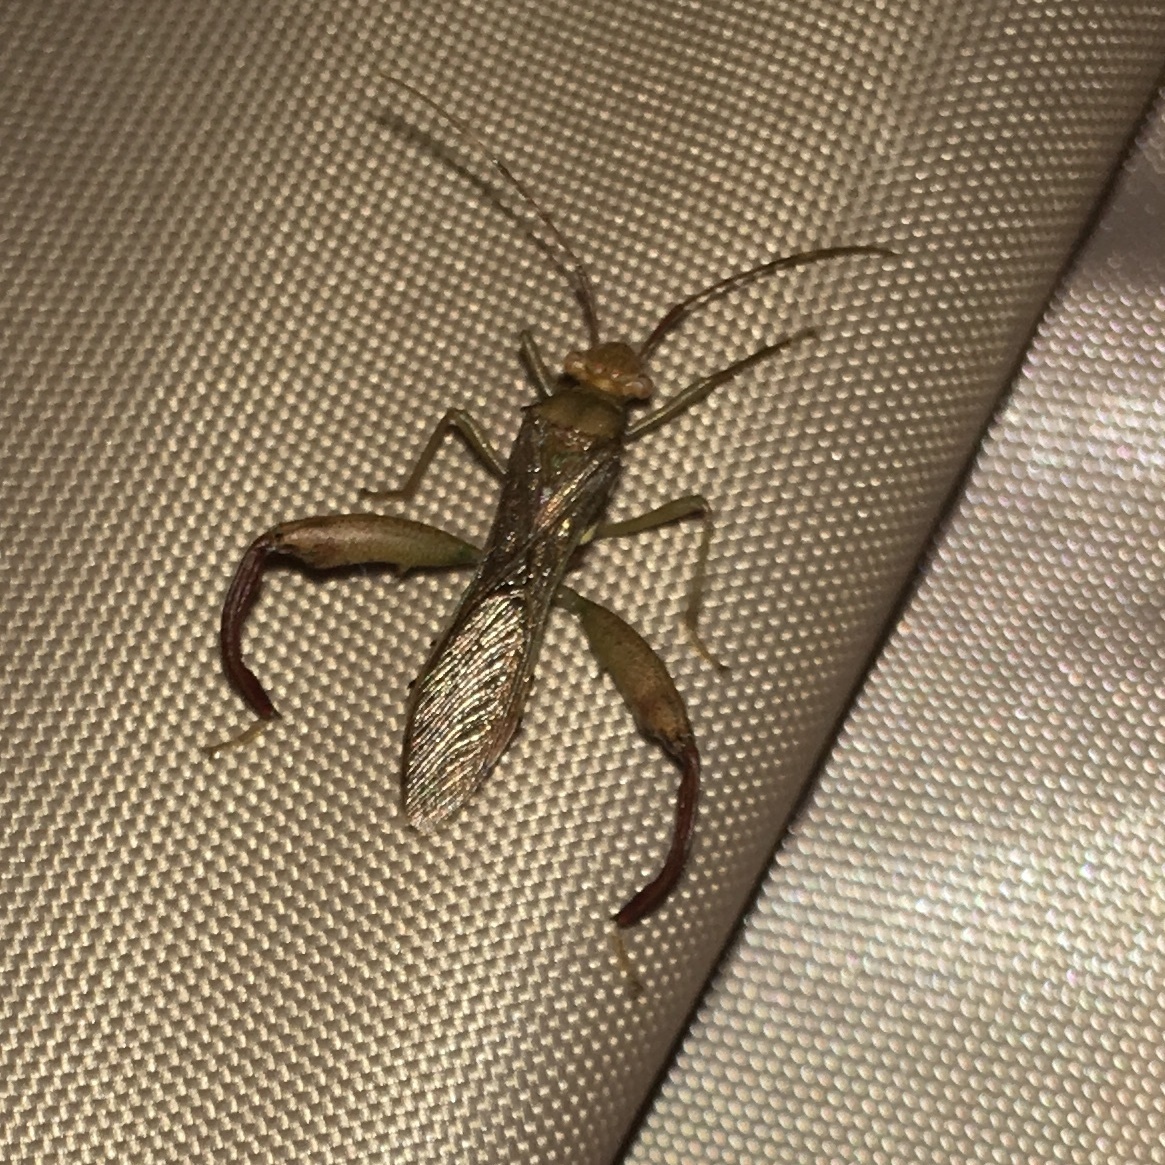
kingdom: Animalia
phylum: Arthropoda
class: Insecta
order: Hemiptera
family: Alydidae
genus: Hyalymenus
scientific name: Hyalymenus tarsatus
